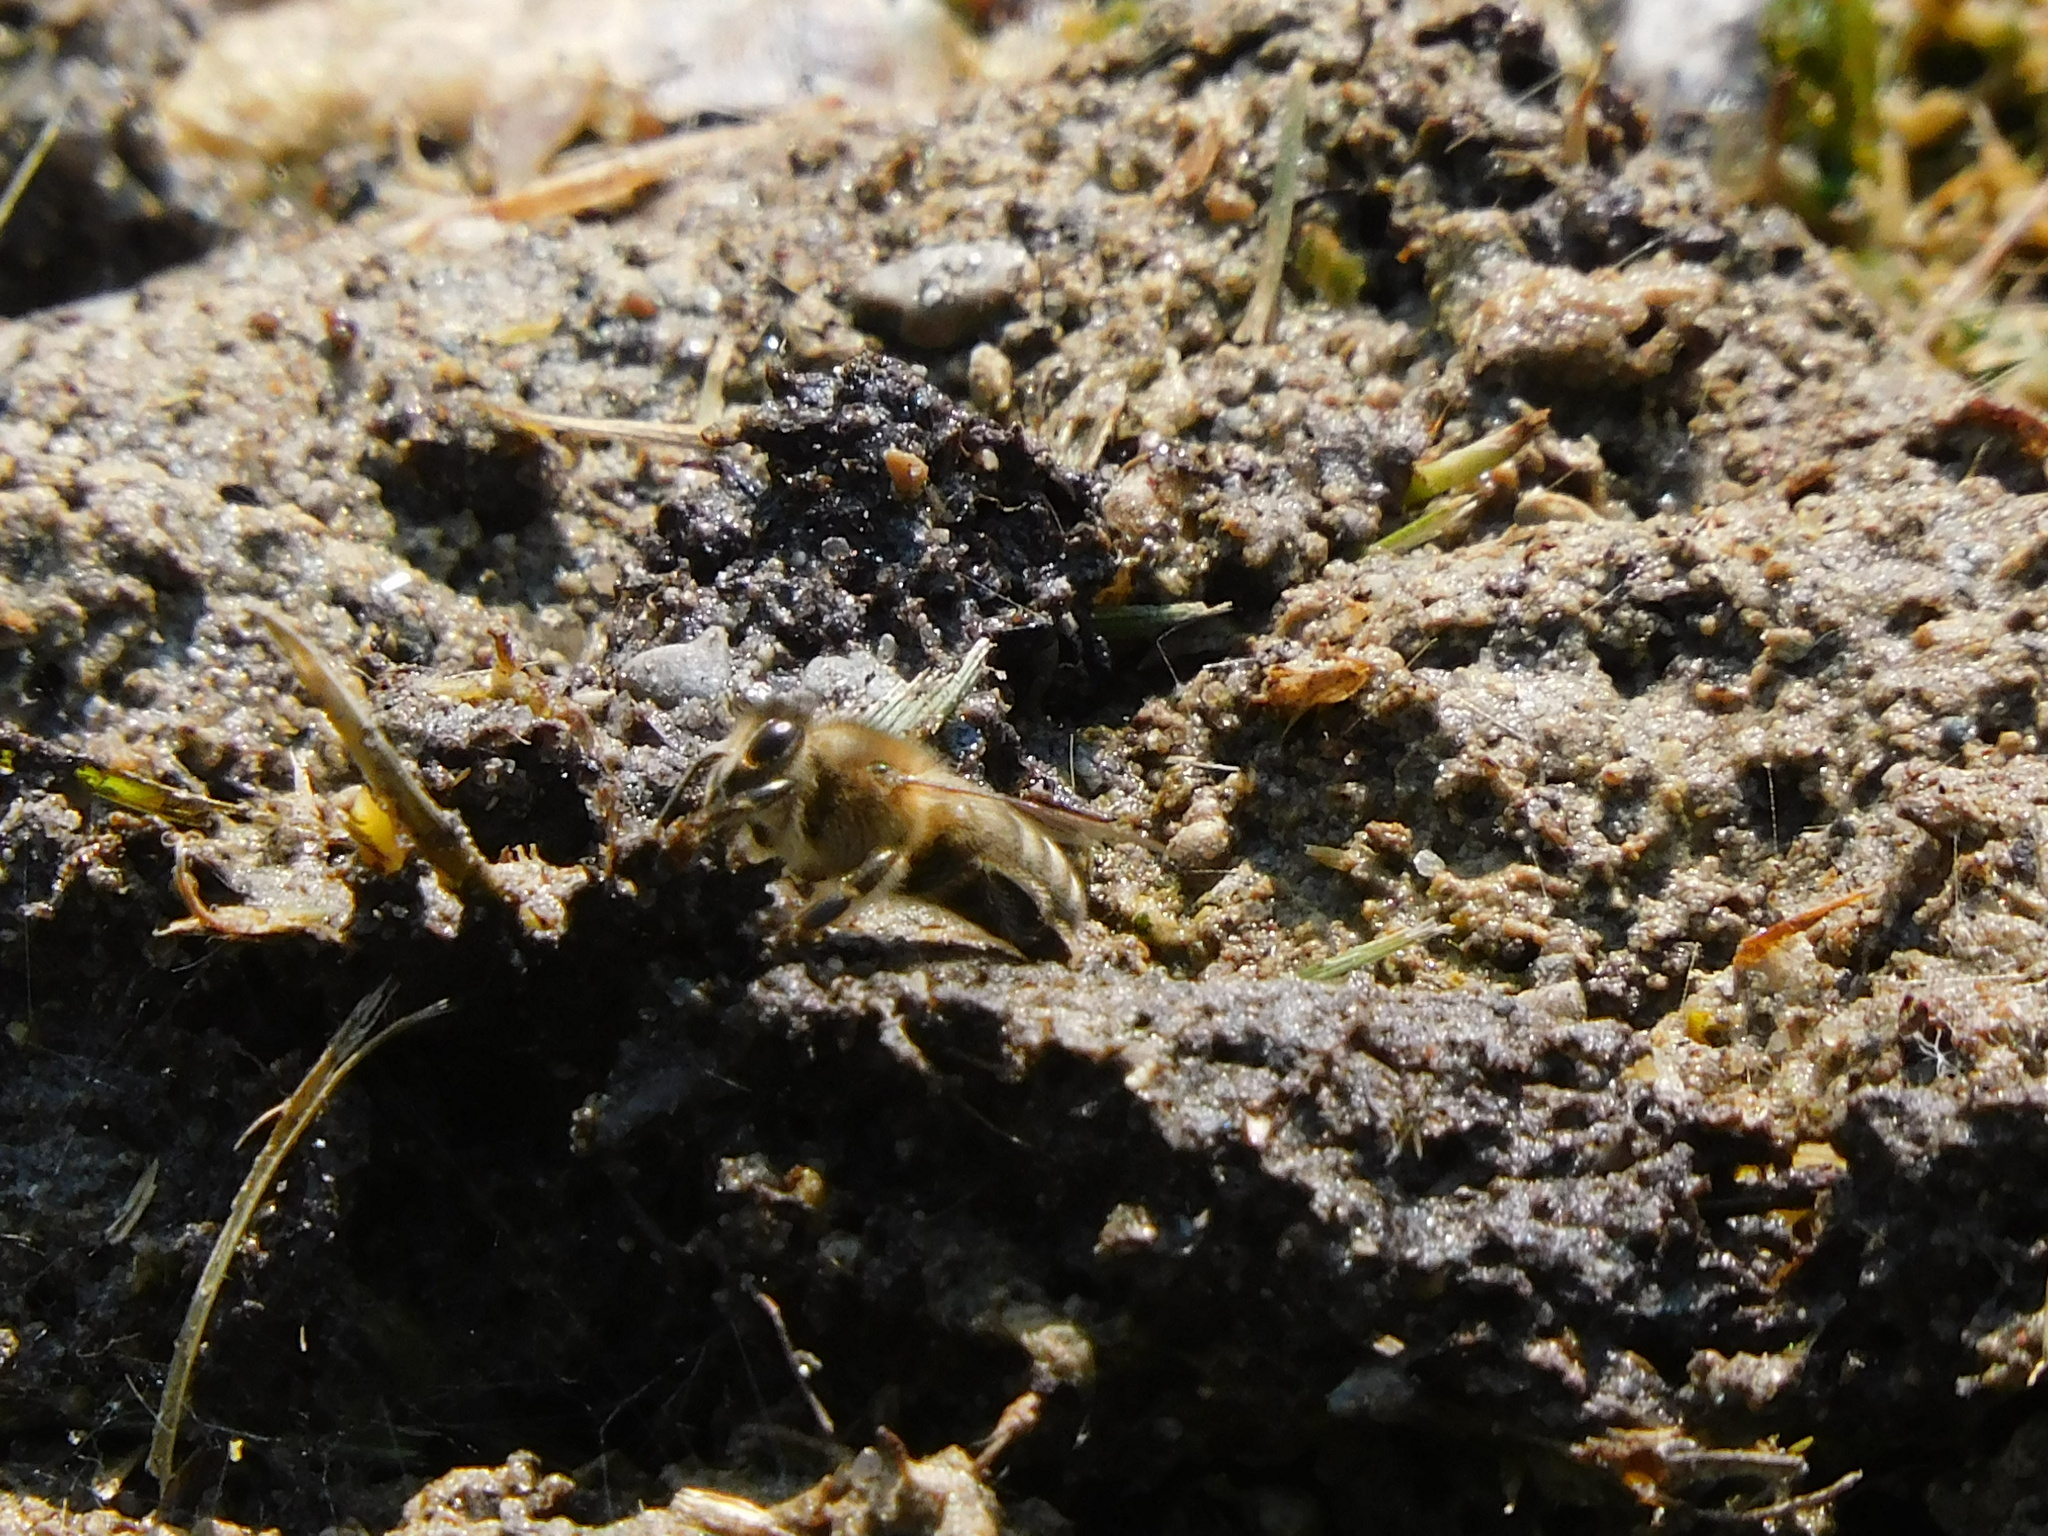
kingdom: Animalia
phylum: Arthropoda
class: Insecta
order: Hymenoptera
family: Apidae
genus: Apis
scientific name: Apis mellifera
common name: Honey bee
